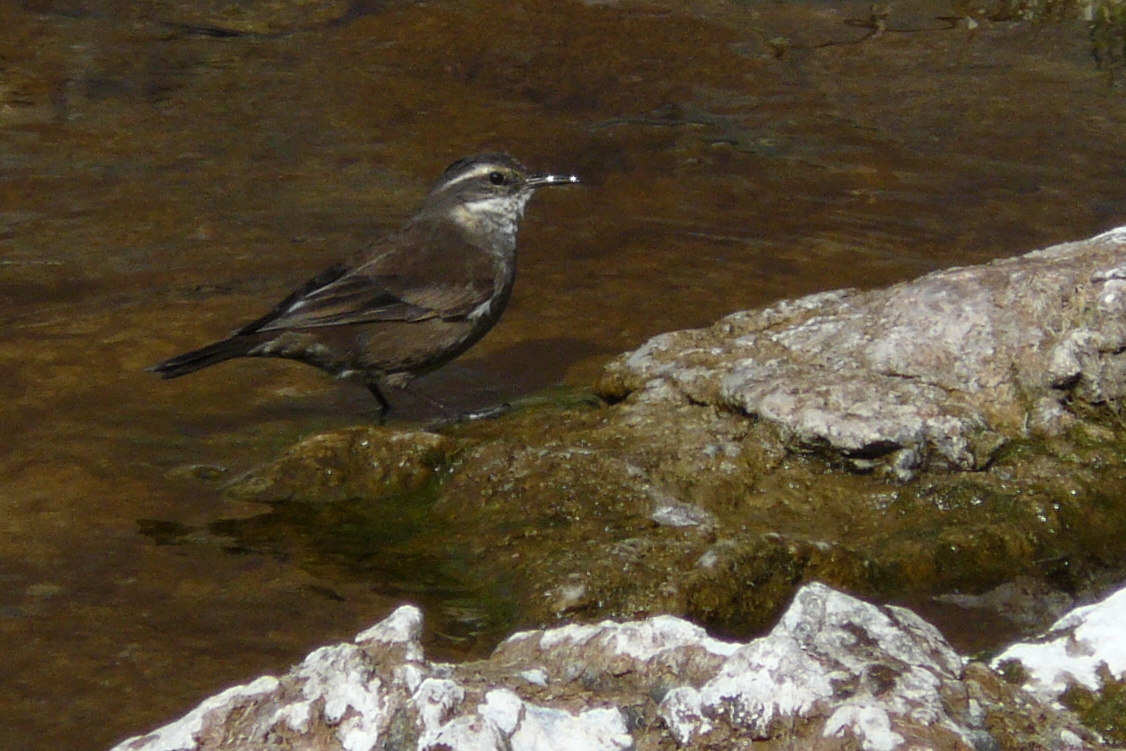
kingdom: Animalia
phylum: Chordata
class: Aves
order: Passeriformes
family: Furnariidae
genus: Cinclodes
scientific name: Cinclodes oustaleti
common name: Grey-flanked cinclodes
